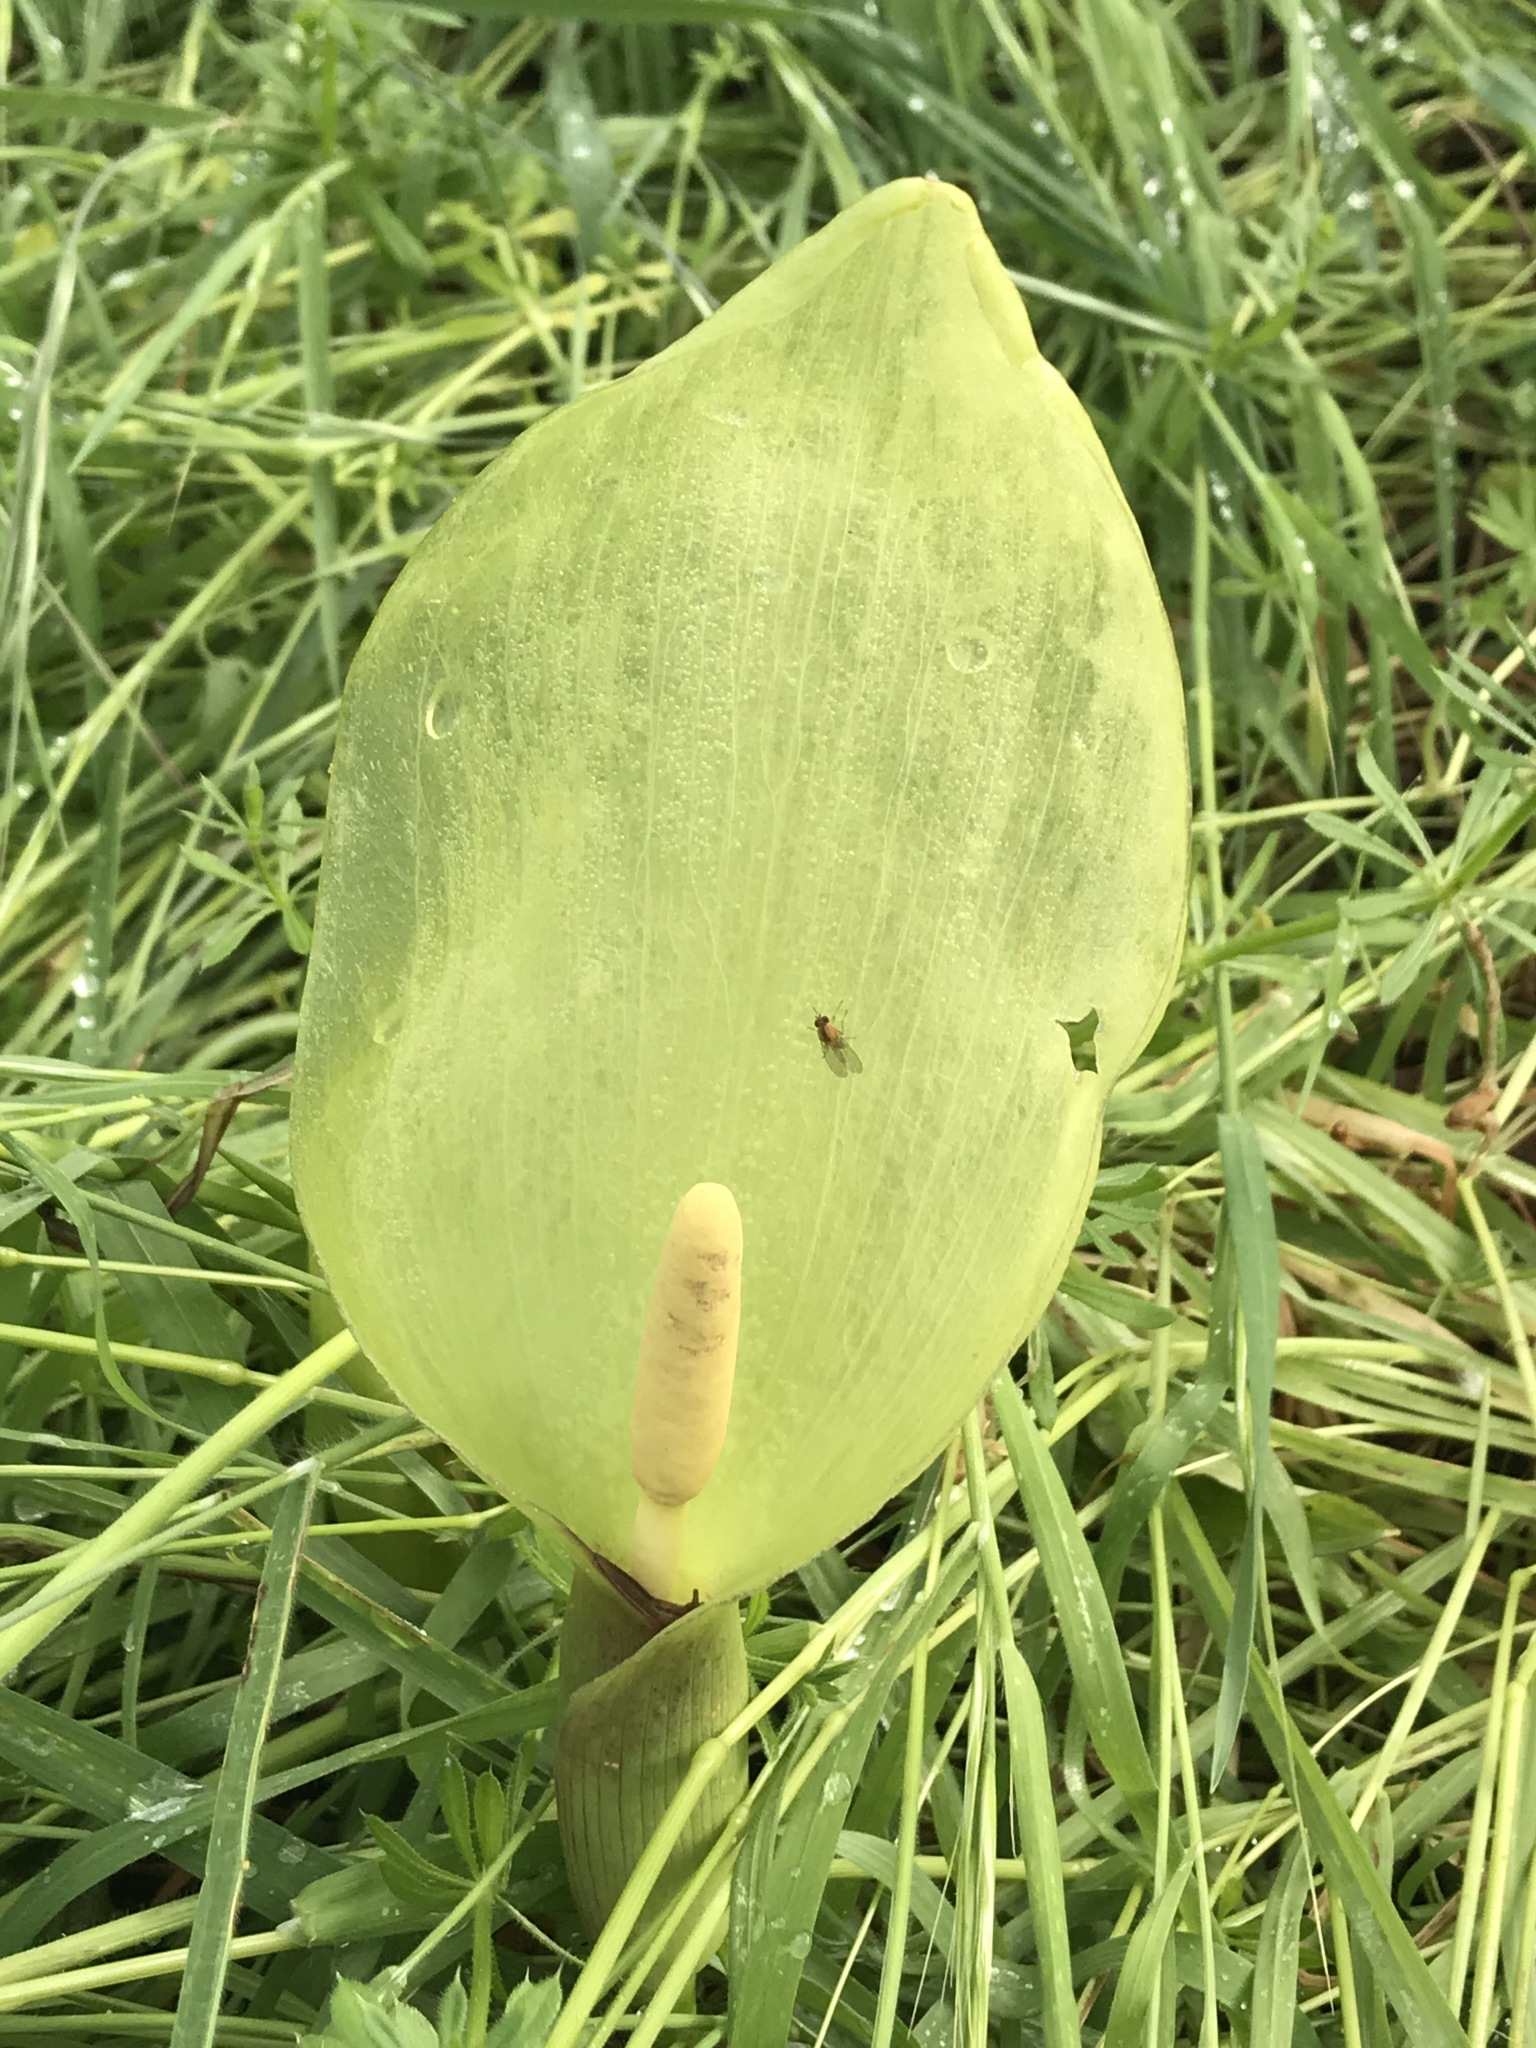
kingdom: Plantae
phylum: Tracheophyta
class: Liliopsida
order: Alismatales
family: Araceae
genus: Arum
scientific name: Arum italicum
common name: Italian lords-and-ladies
